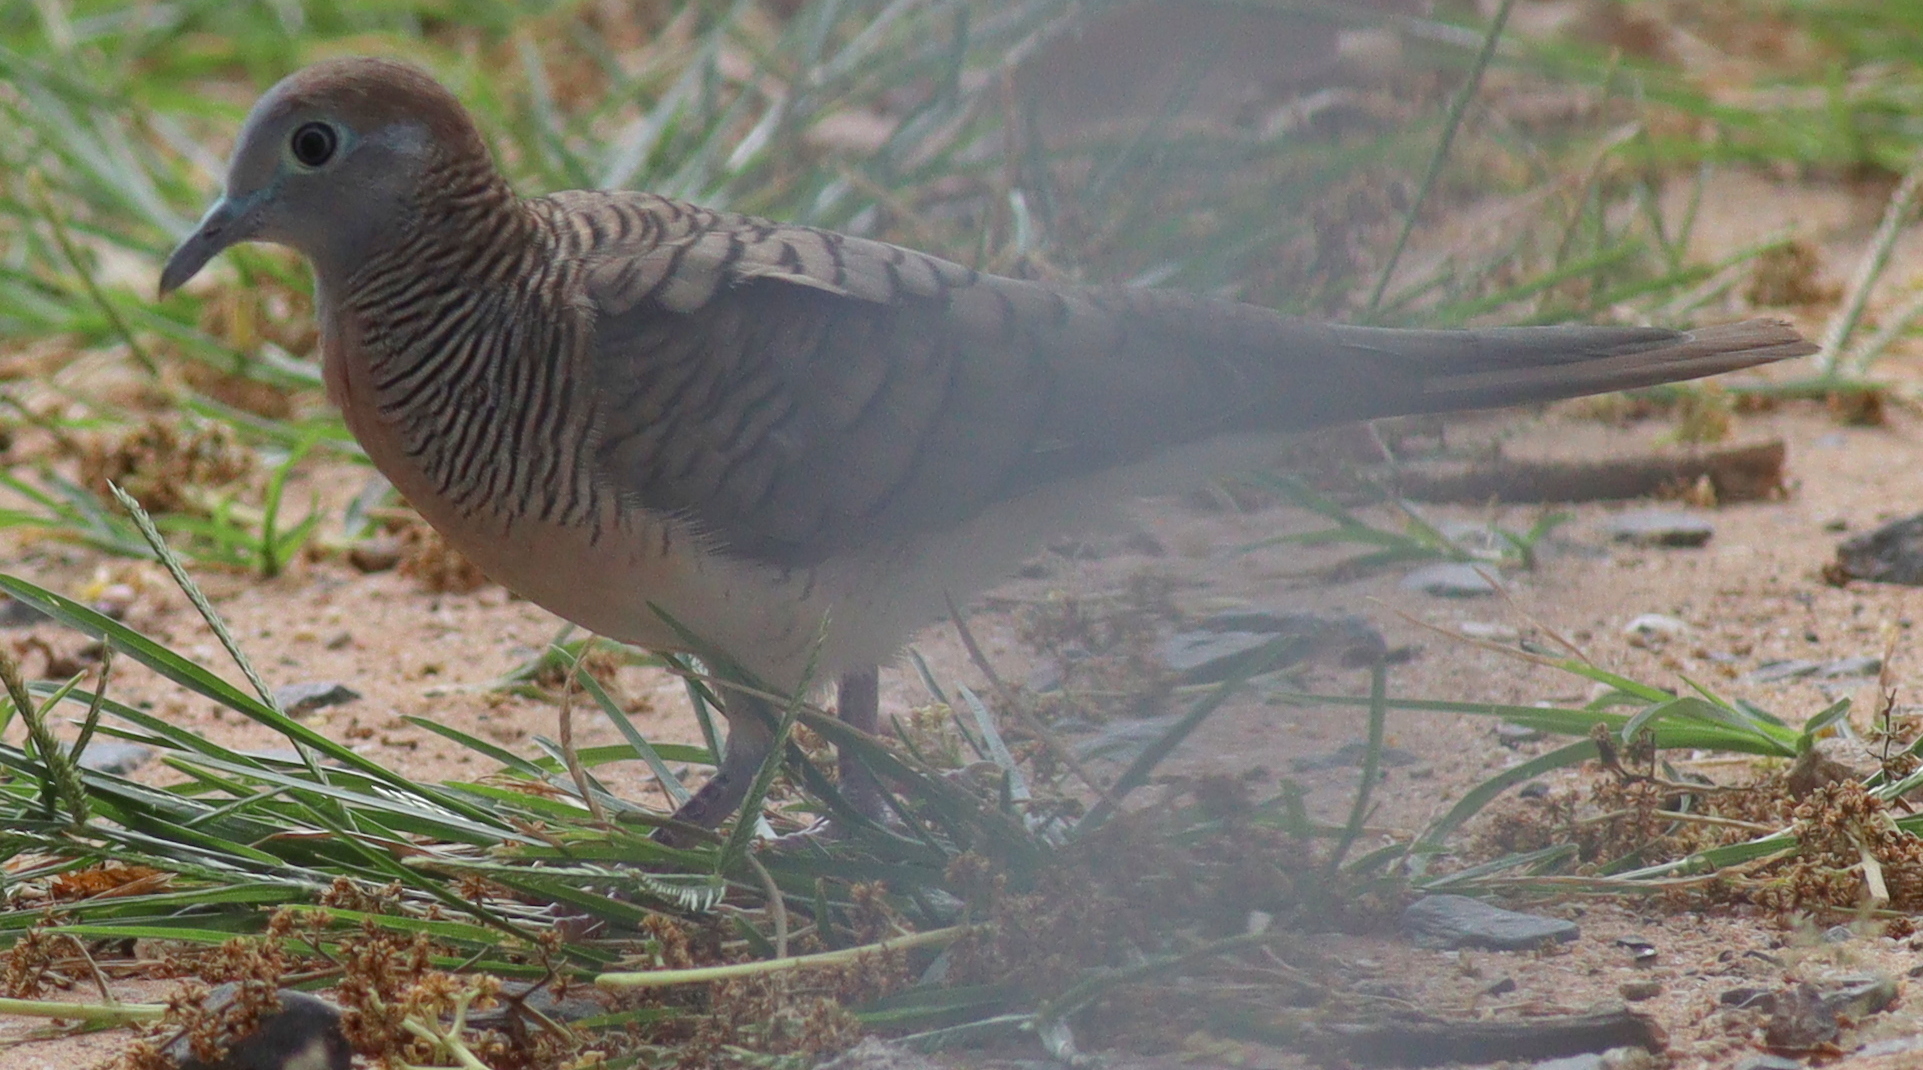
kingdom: Animalia
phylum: Chordata
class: Aves
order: Columbiformes
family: Columbidae
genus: Geopelia
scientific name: Geopelia striata
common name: Zebra dove
